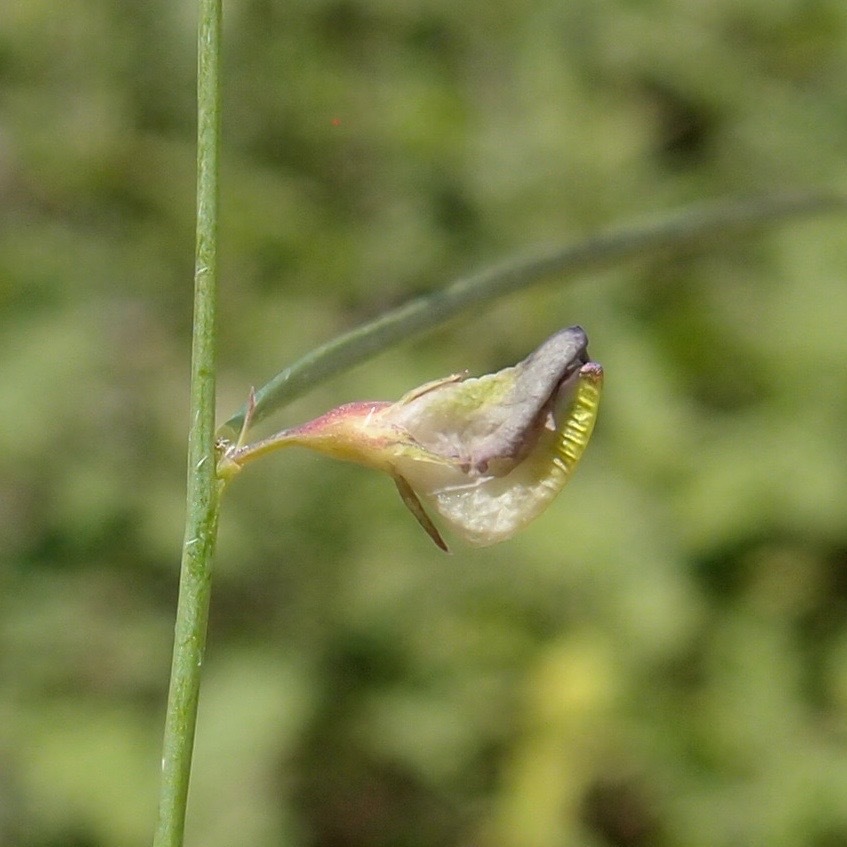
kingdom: Plantae
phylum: Tracheophyta
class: Magnoliopsida
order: Fabales
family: Fabaceae
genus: Sphinctospermum
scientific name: Sphinctospermum constrictum
